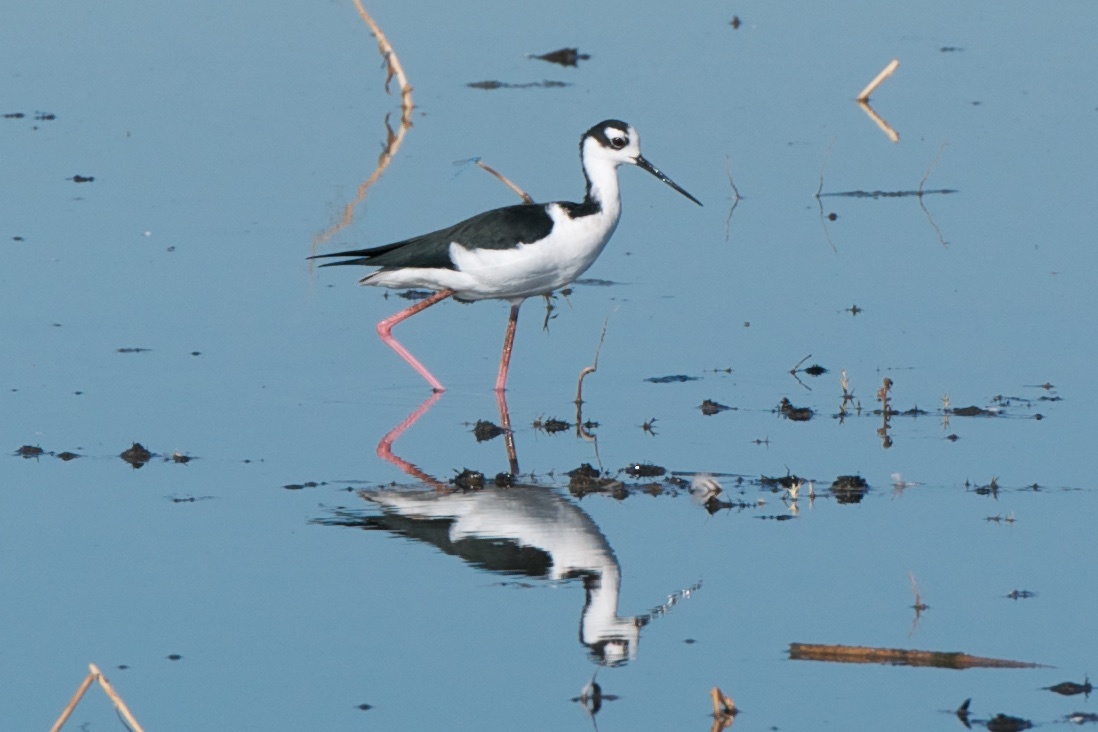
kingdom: Animalia
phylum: Chordata
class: Aves
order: Charadriiformes
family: Recurvirostridae
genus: Himantopus
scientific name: Himantopus mexicanus
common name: Black-necked stilt
